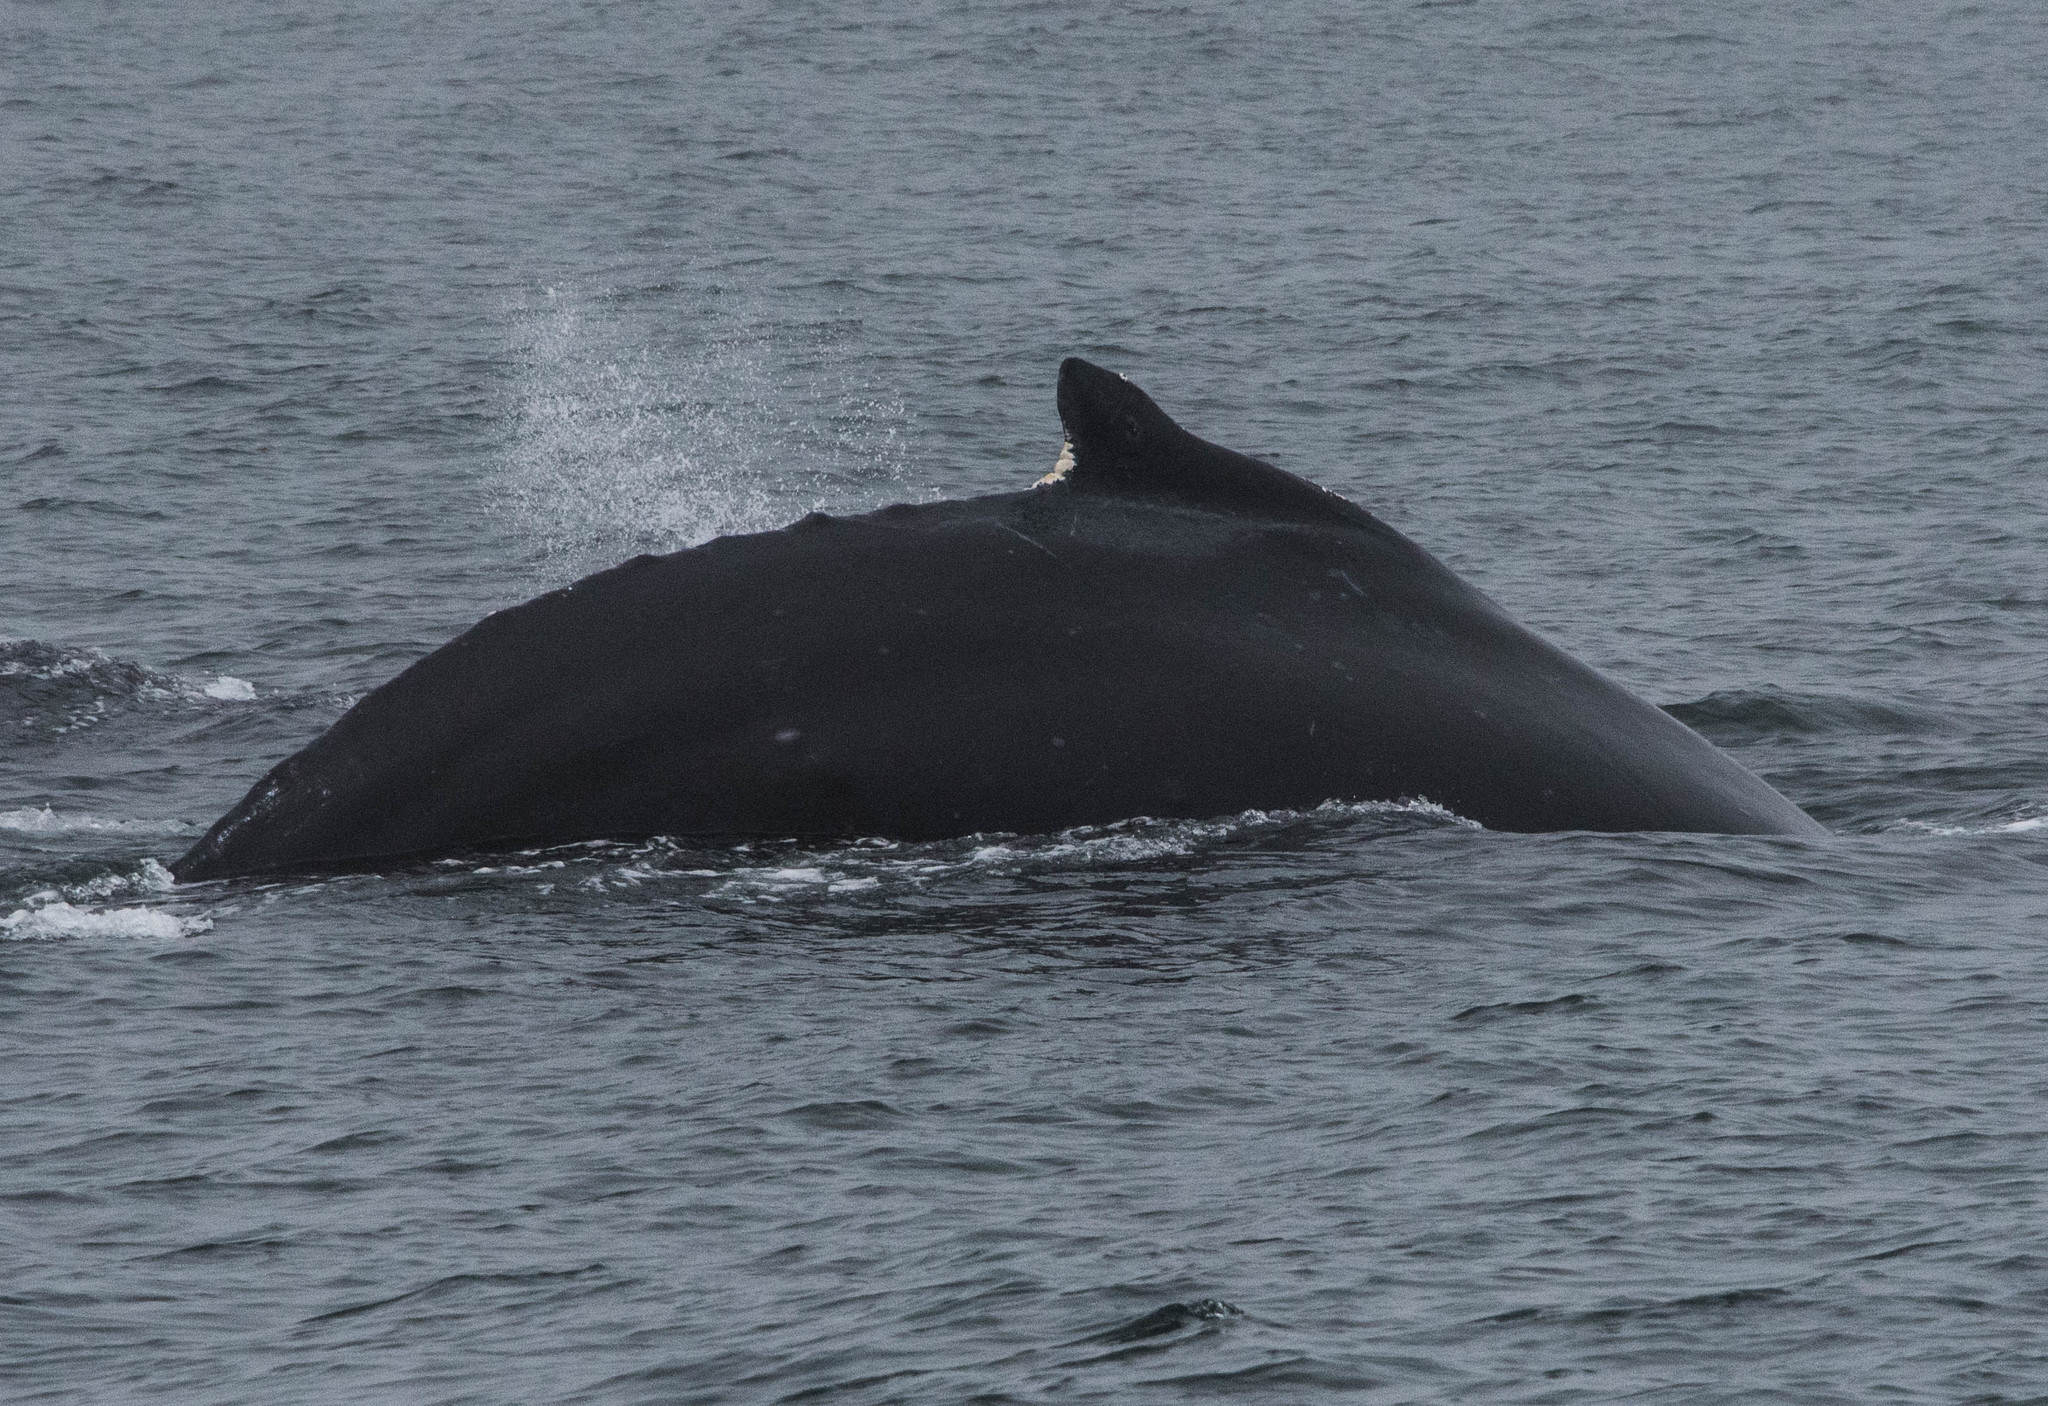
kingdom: Animalia
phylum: Chordata
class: Mammalia
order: Cetacea
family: Balaenopteridae
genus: Megaptera
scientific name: Megaptera novaeangliae
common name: Humpback whale
